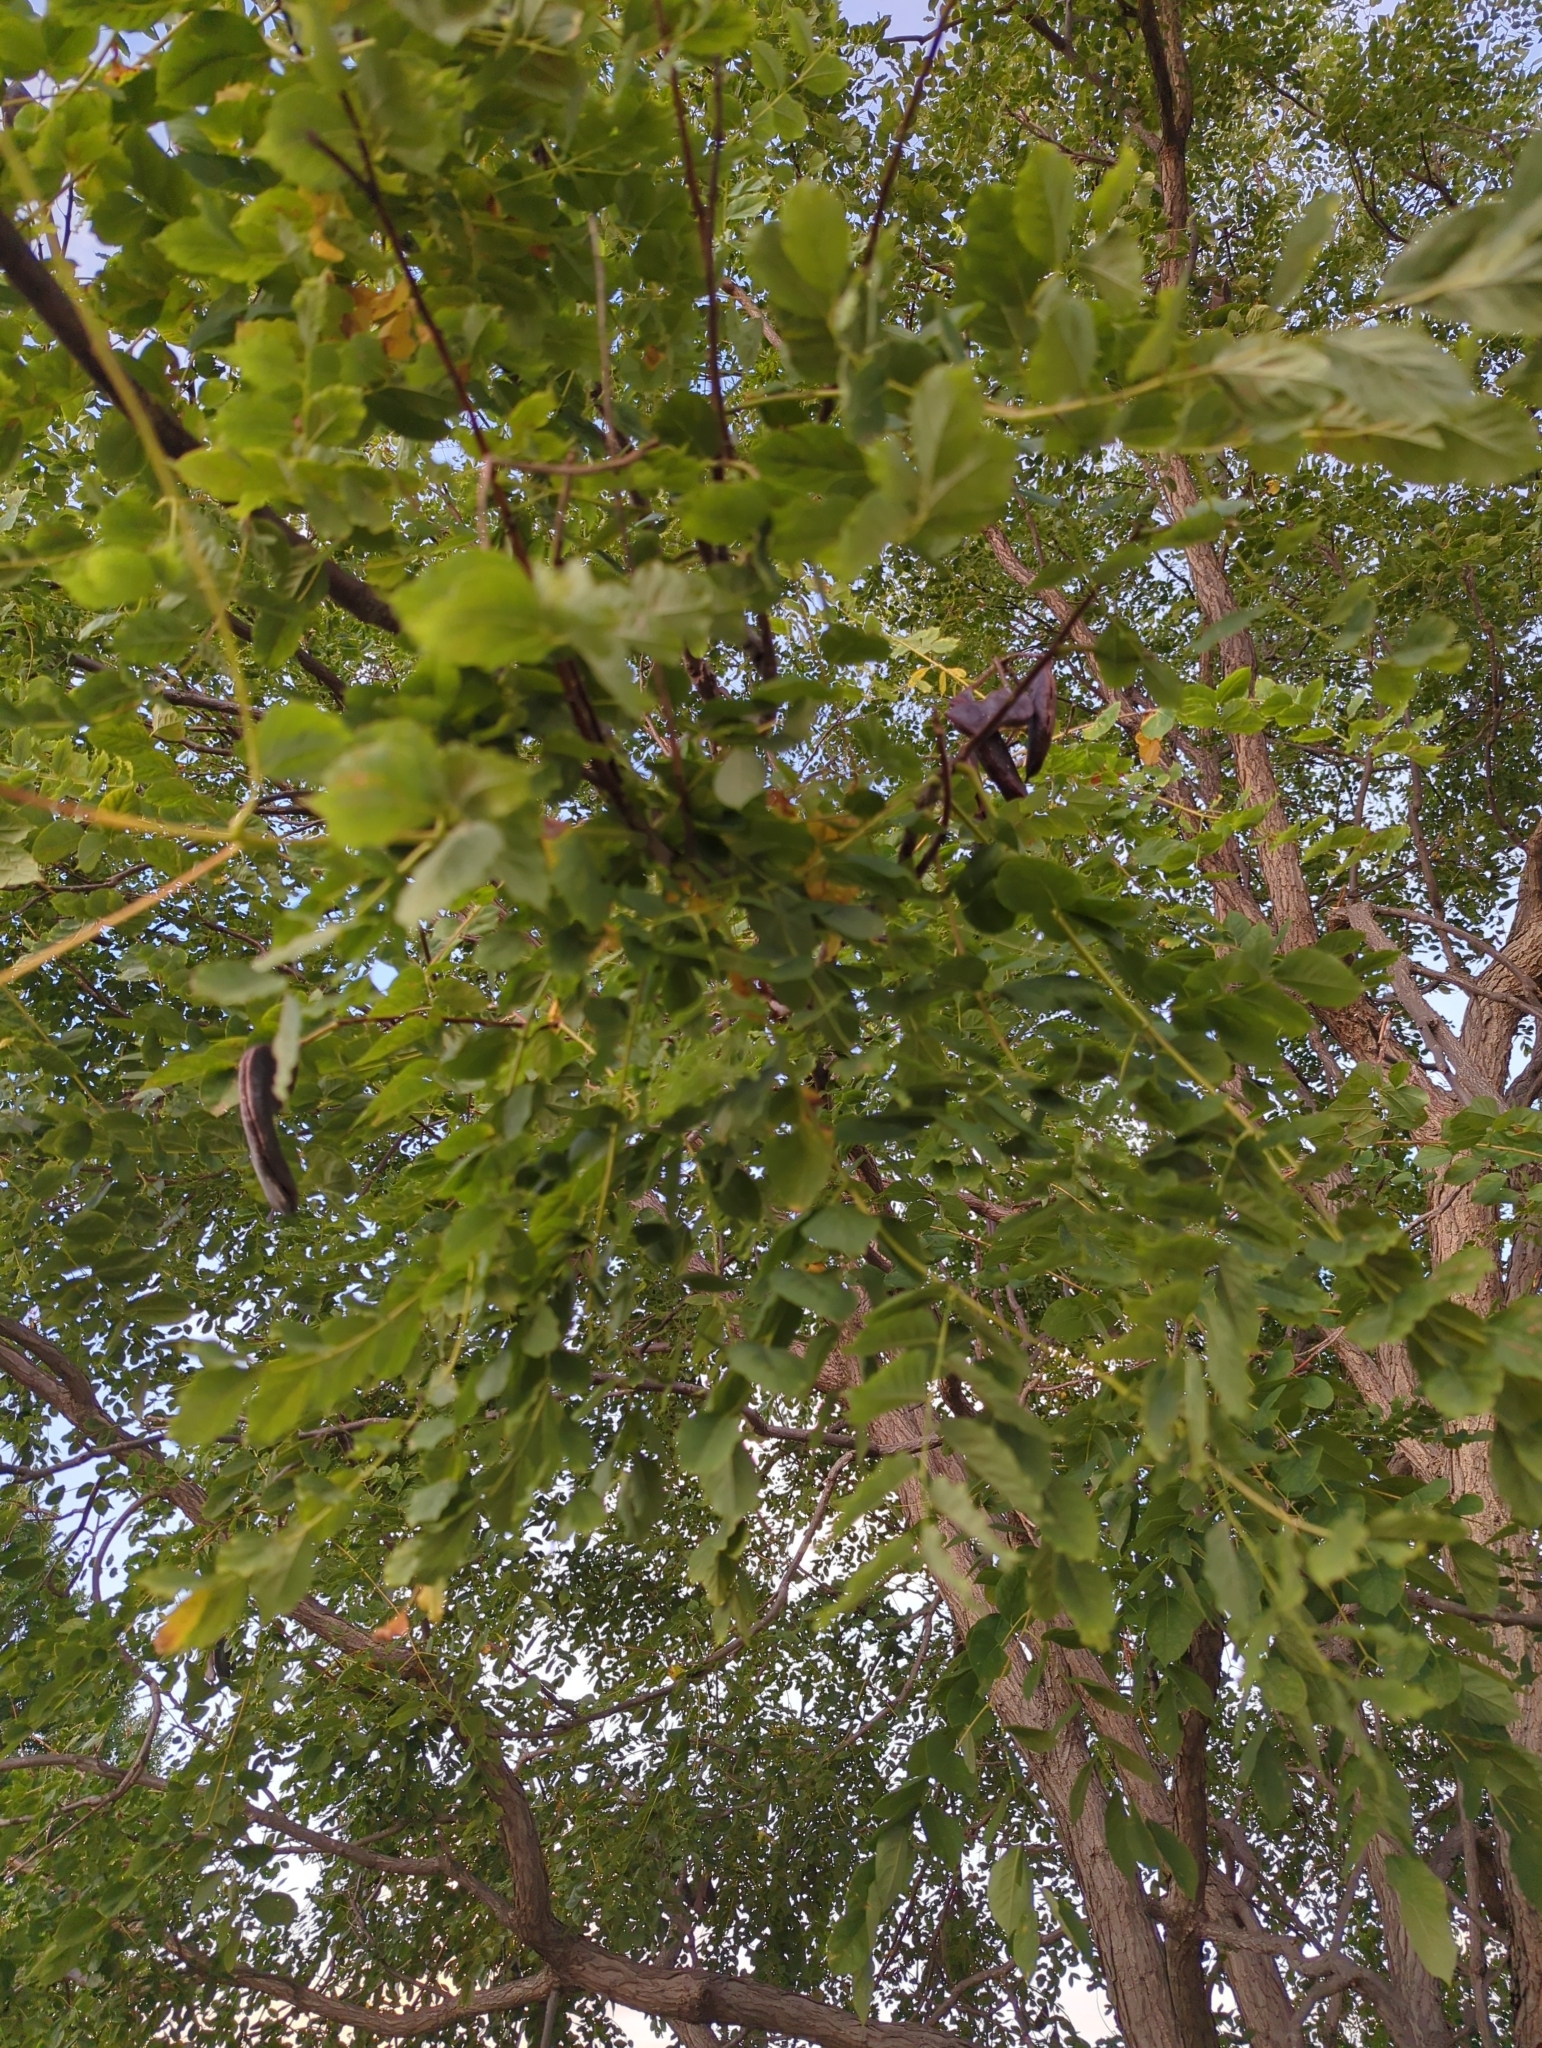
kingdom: Plantae
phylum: Tracheophyta
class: Magnoliopsida
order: Fabales
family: Fabaceae
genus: Gymnocladus
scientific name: Gymnocladus dioicus
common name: Kentucky coffee-tree
